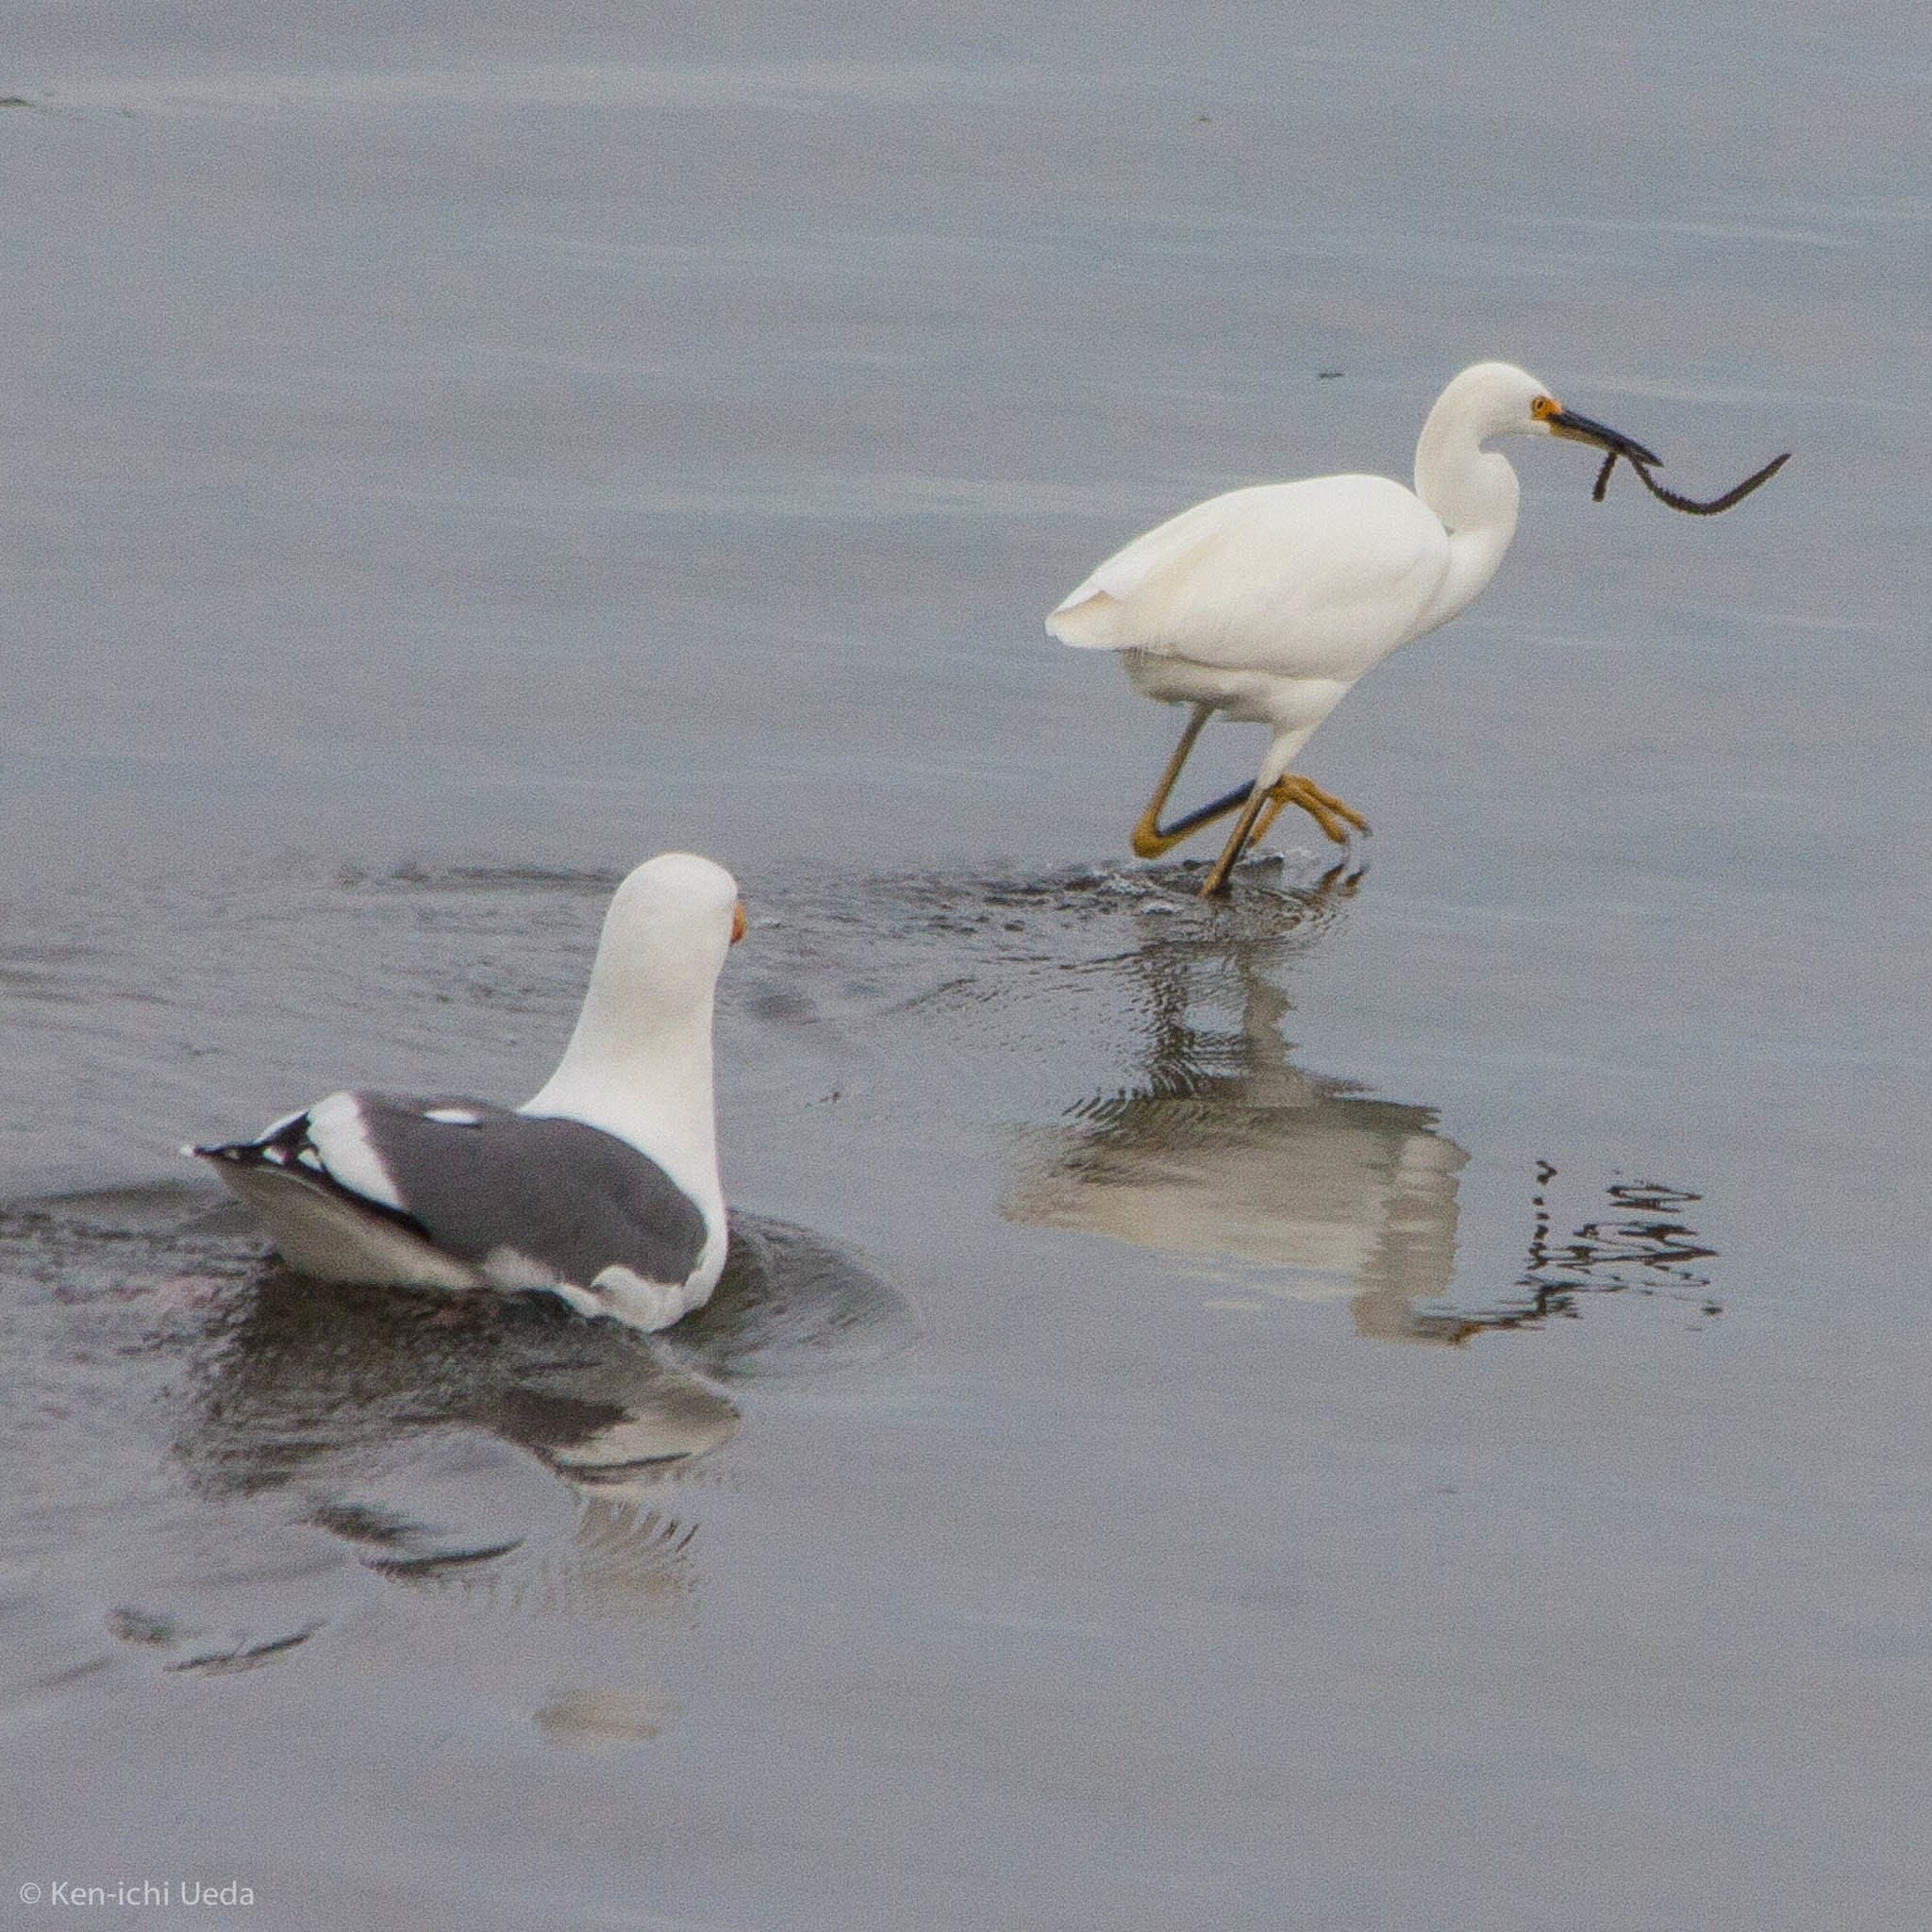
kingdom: Animalia
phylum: Chordata
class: Aves
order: Pelecaniformes
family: Ardeidae
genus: Egretta
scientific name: Egretta thula
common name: Snowy egret
